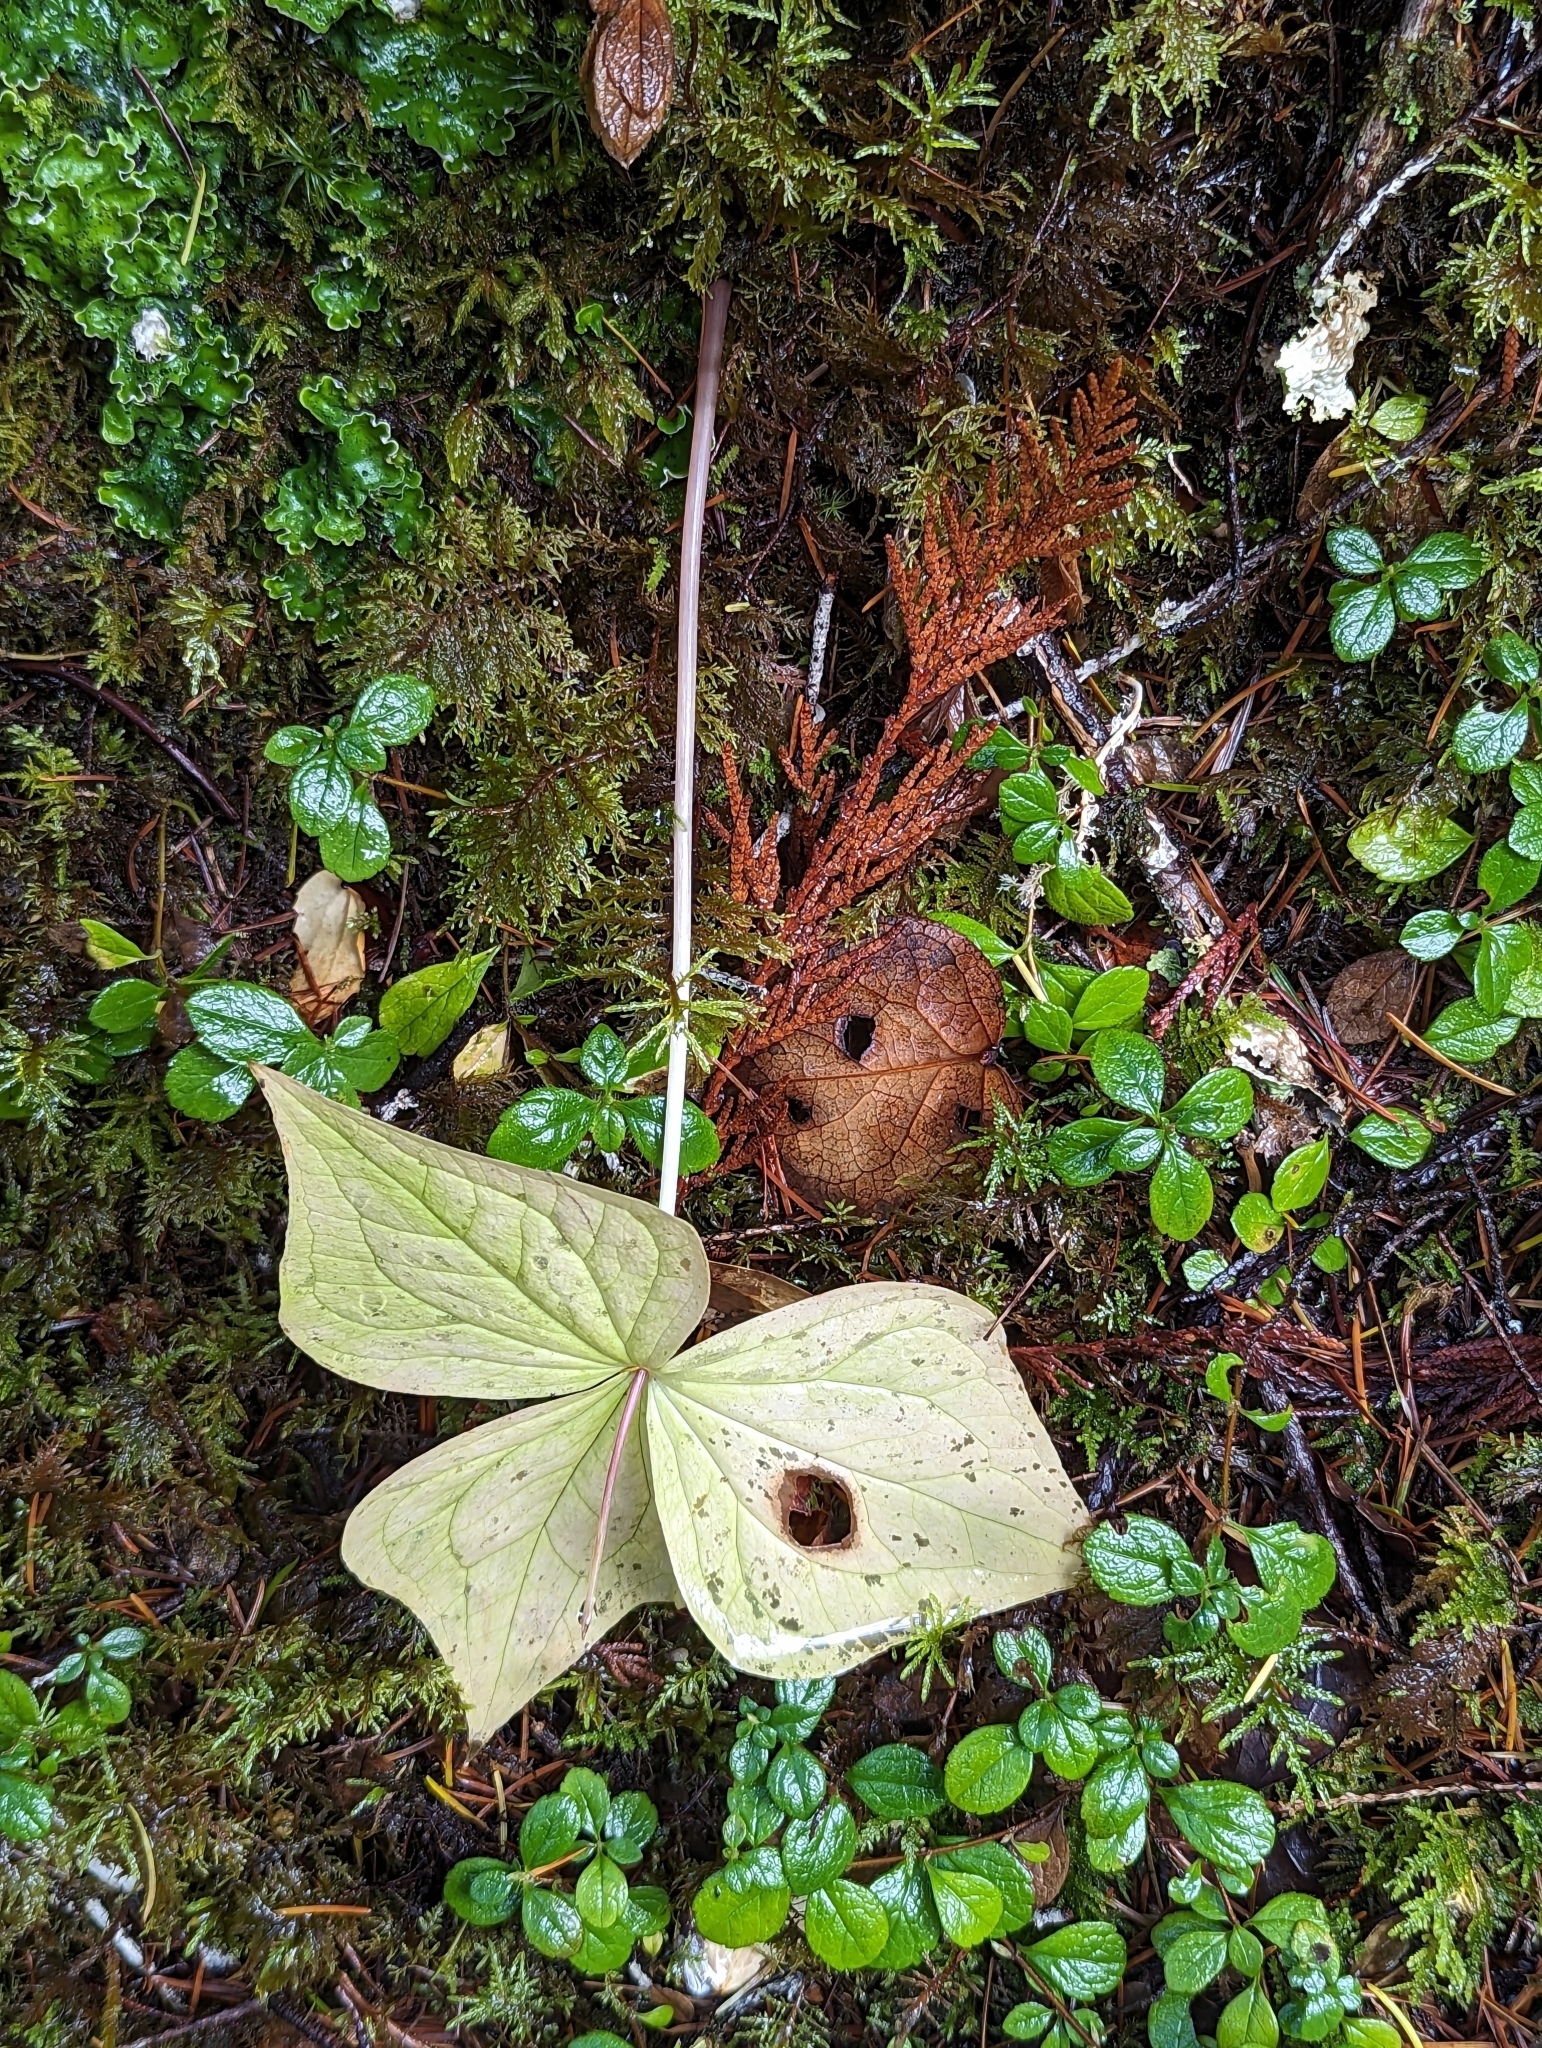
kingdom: Plantae
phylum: Tracheophyta
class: Liliopsida
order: Liliales
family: Melanthiaceae
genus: Trillium
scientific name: Trillium ovatum
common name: Pacific trillium
